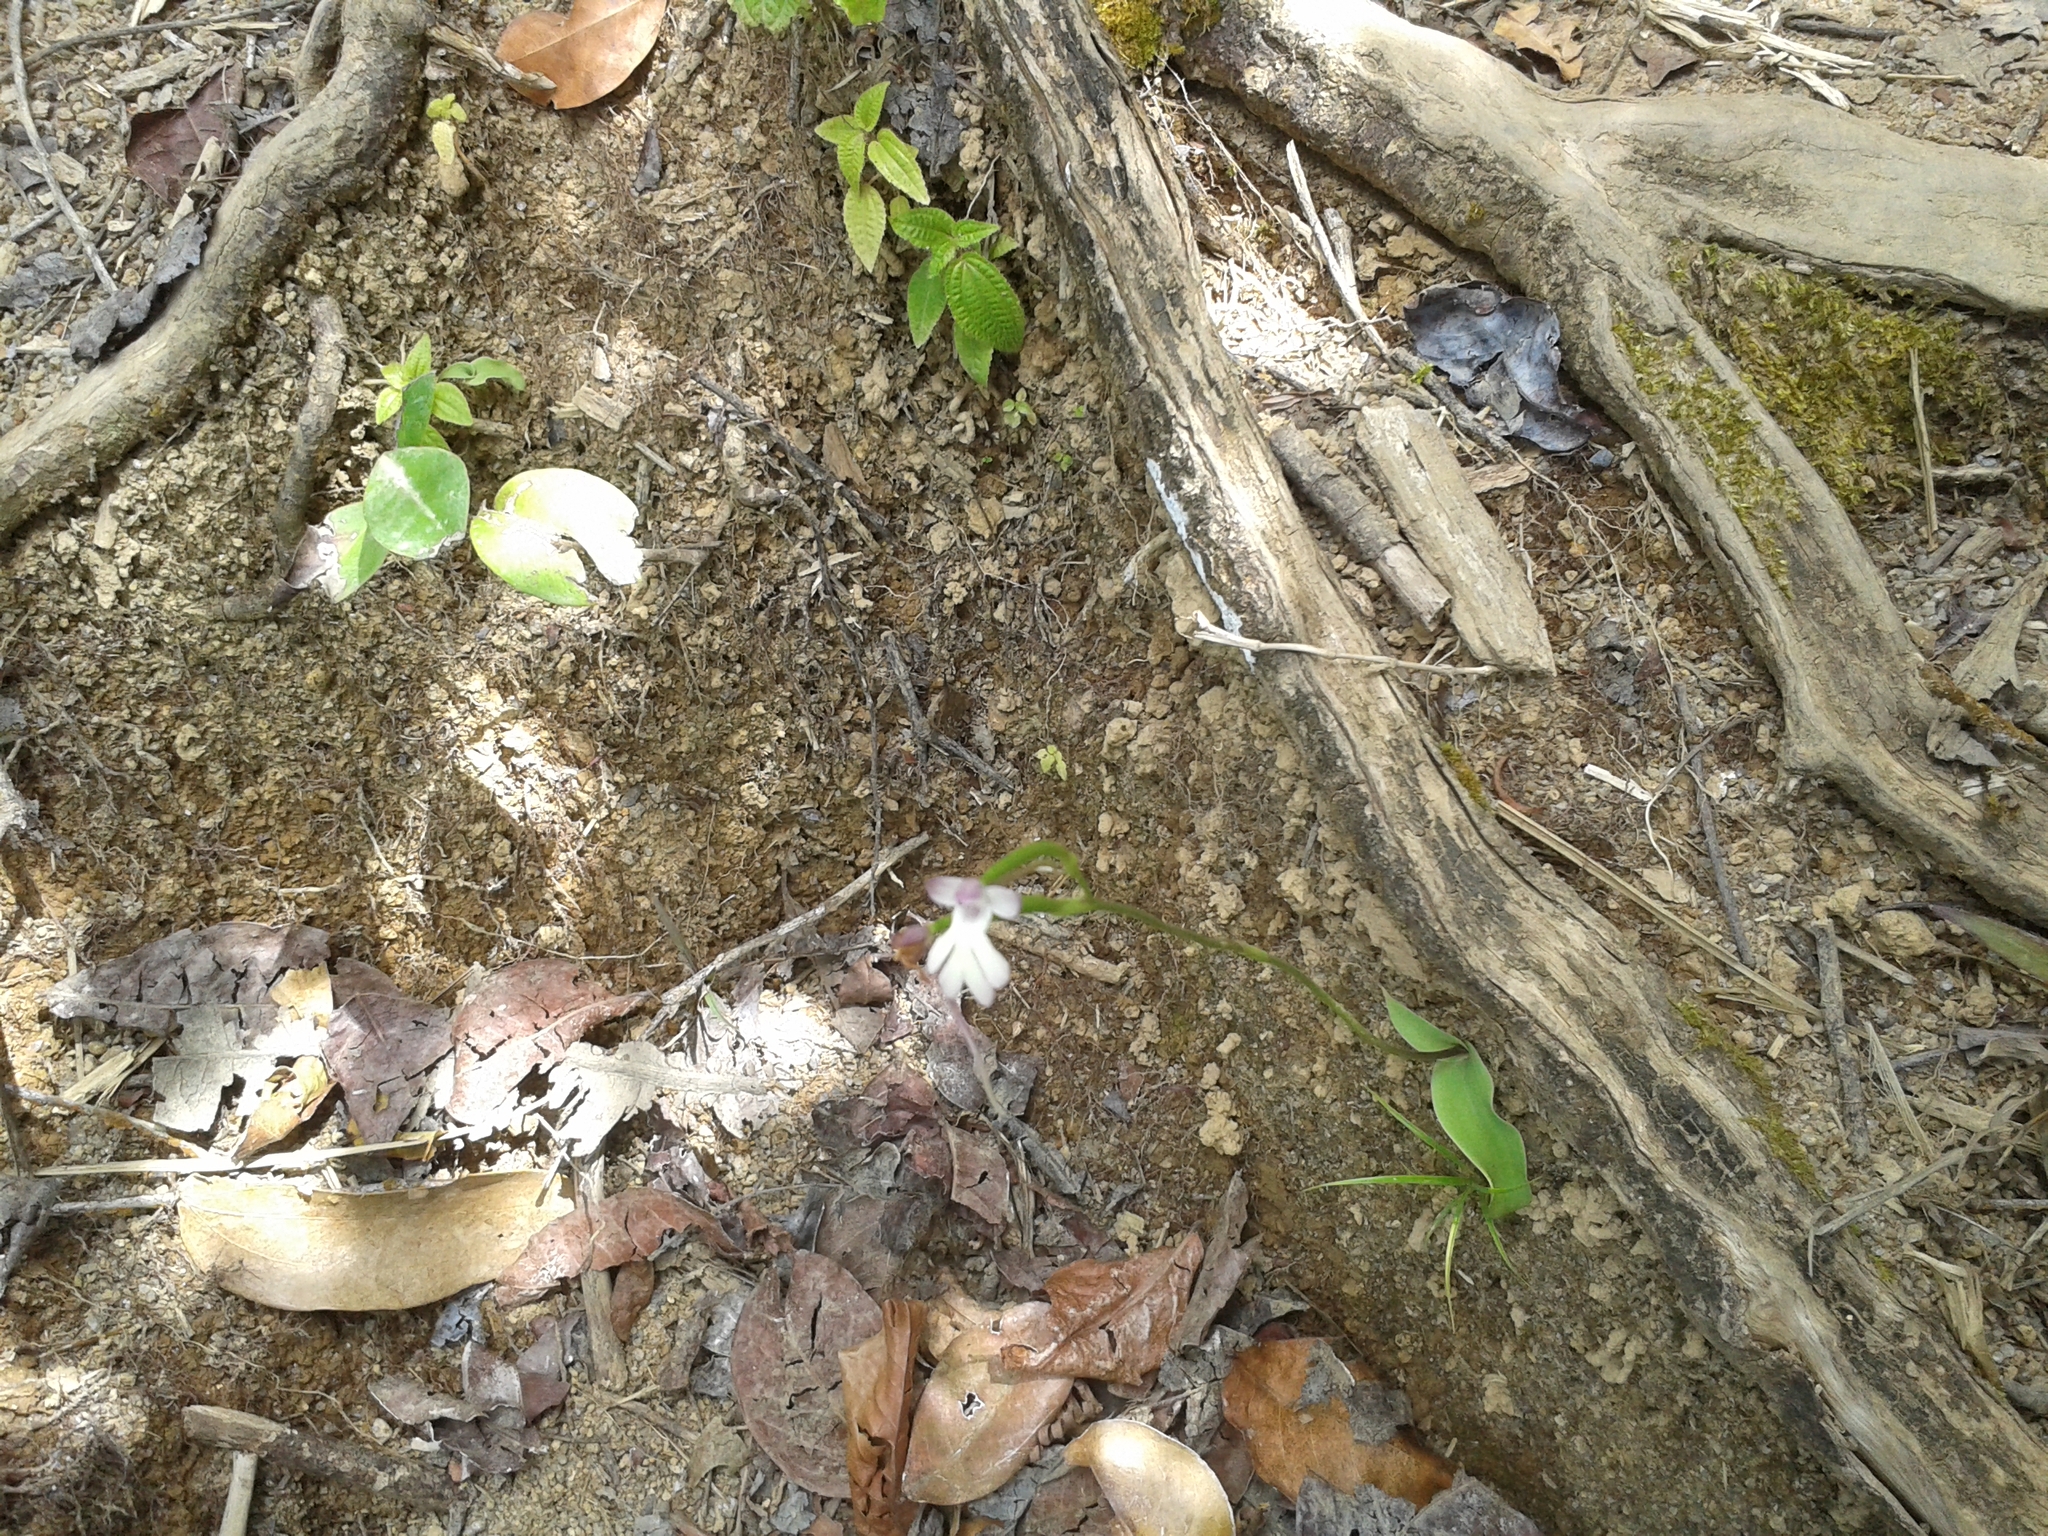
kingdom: Plantae
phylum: Tracheophyta
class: Liliopsida
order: Asparagales
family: Orchidaceae
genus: Cynorkis
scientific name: Cynorkis fastigiata
